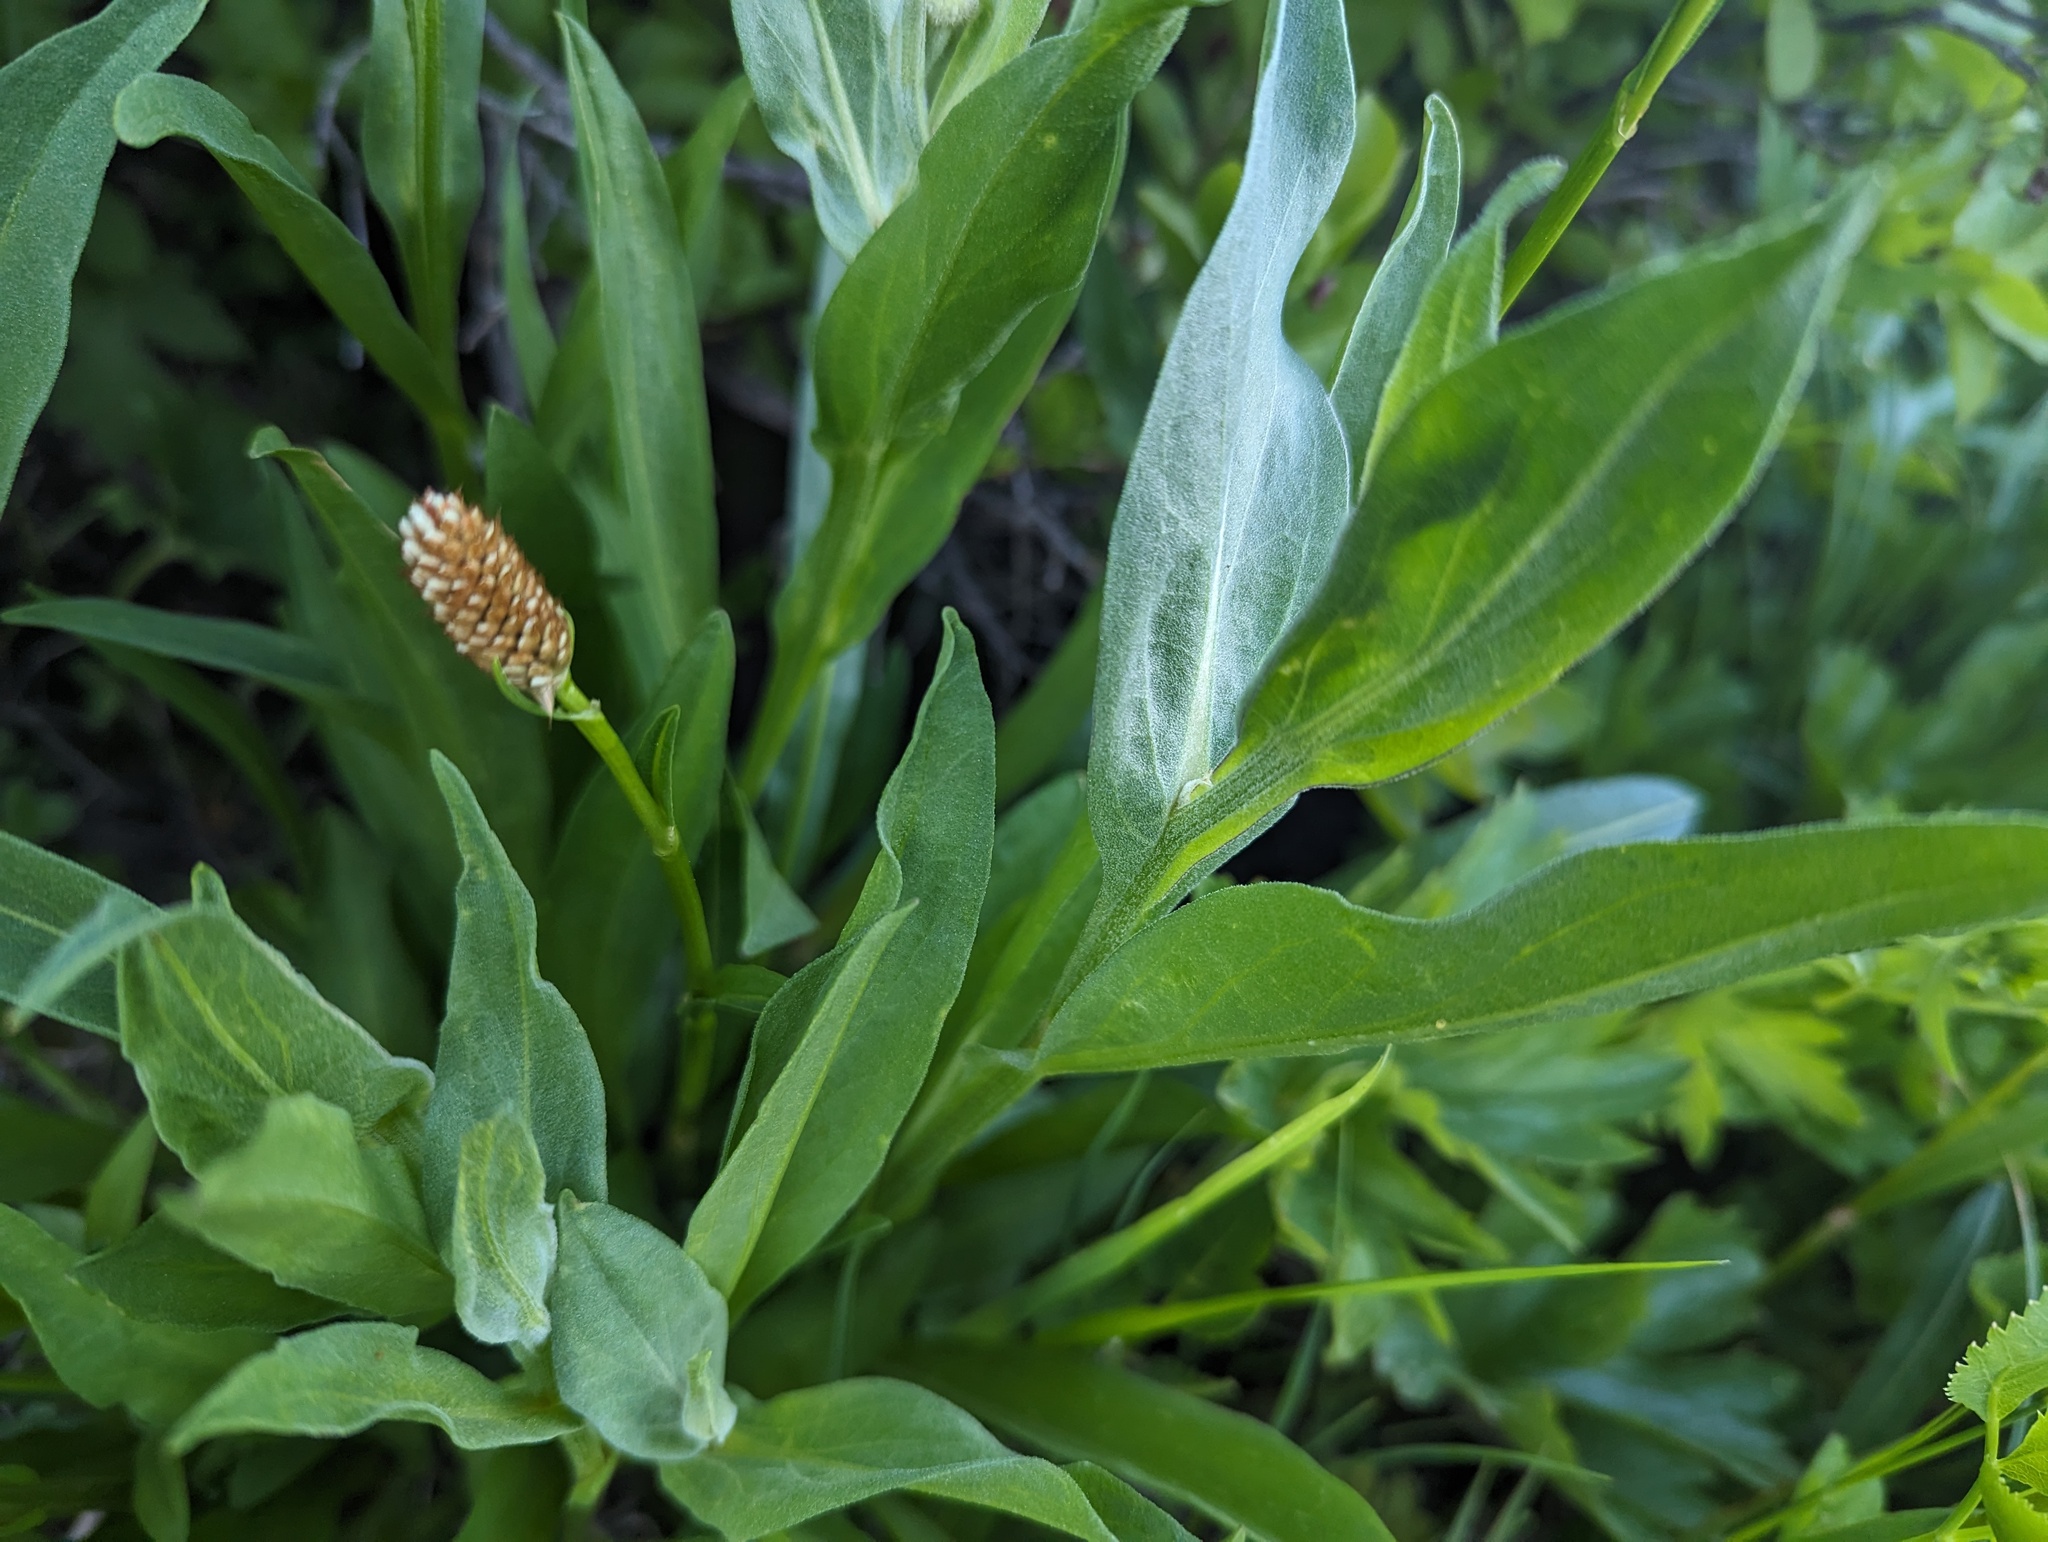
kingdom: Plantae
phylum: Tracheophyta
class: Magnoliopsida
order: Asterales
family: Asteraceae
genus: Erigeron
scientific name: Erigeron aliceae
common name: Alice eastwood's fleabane
